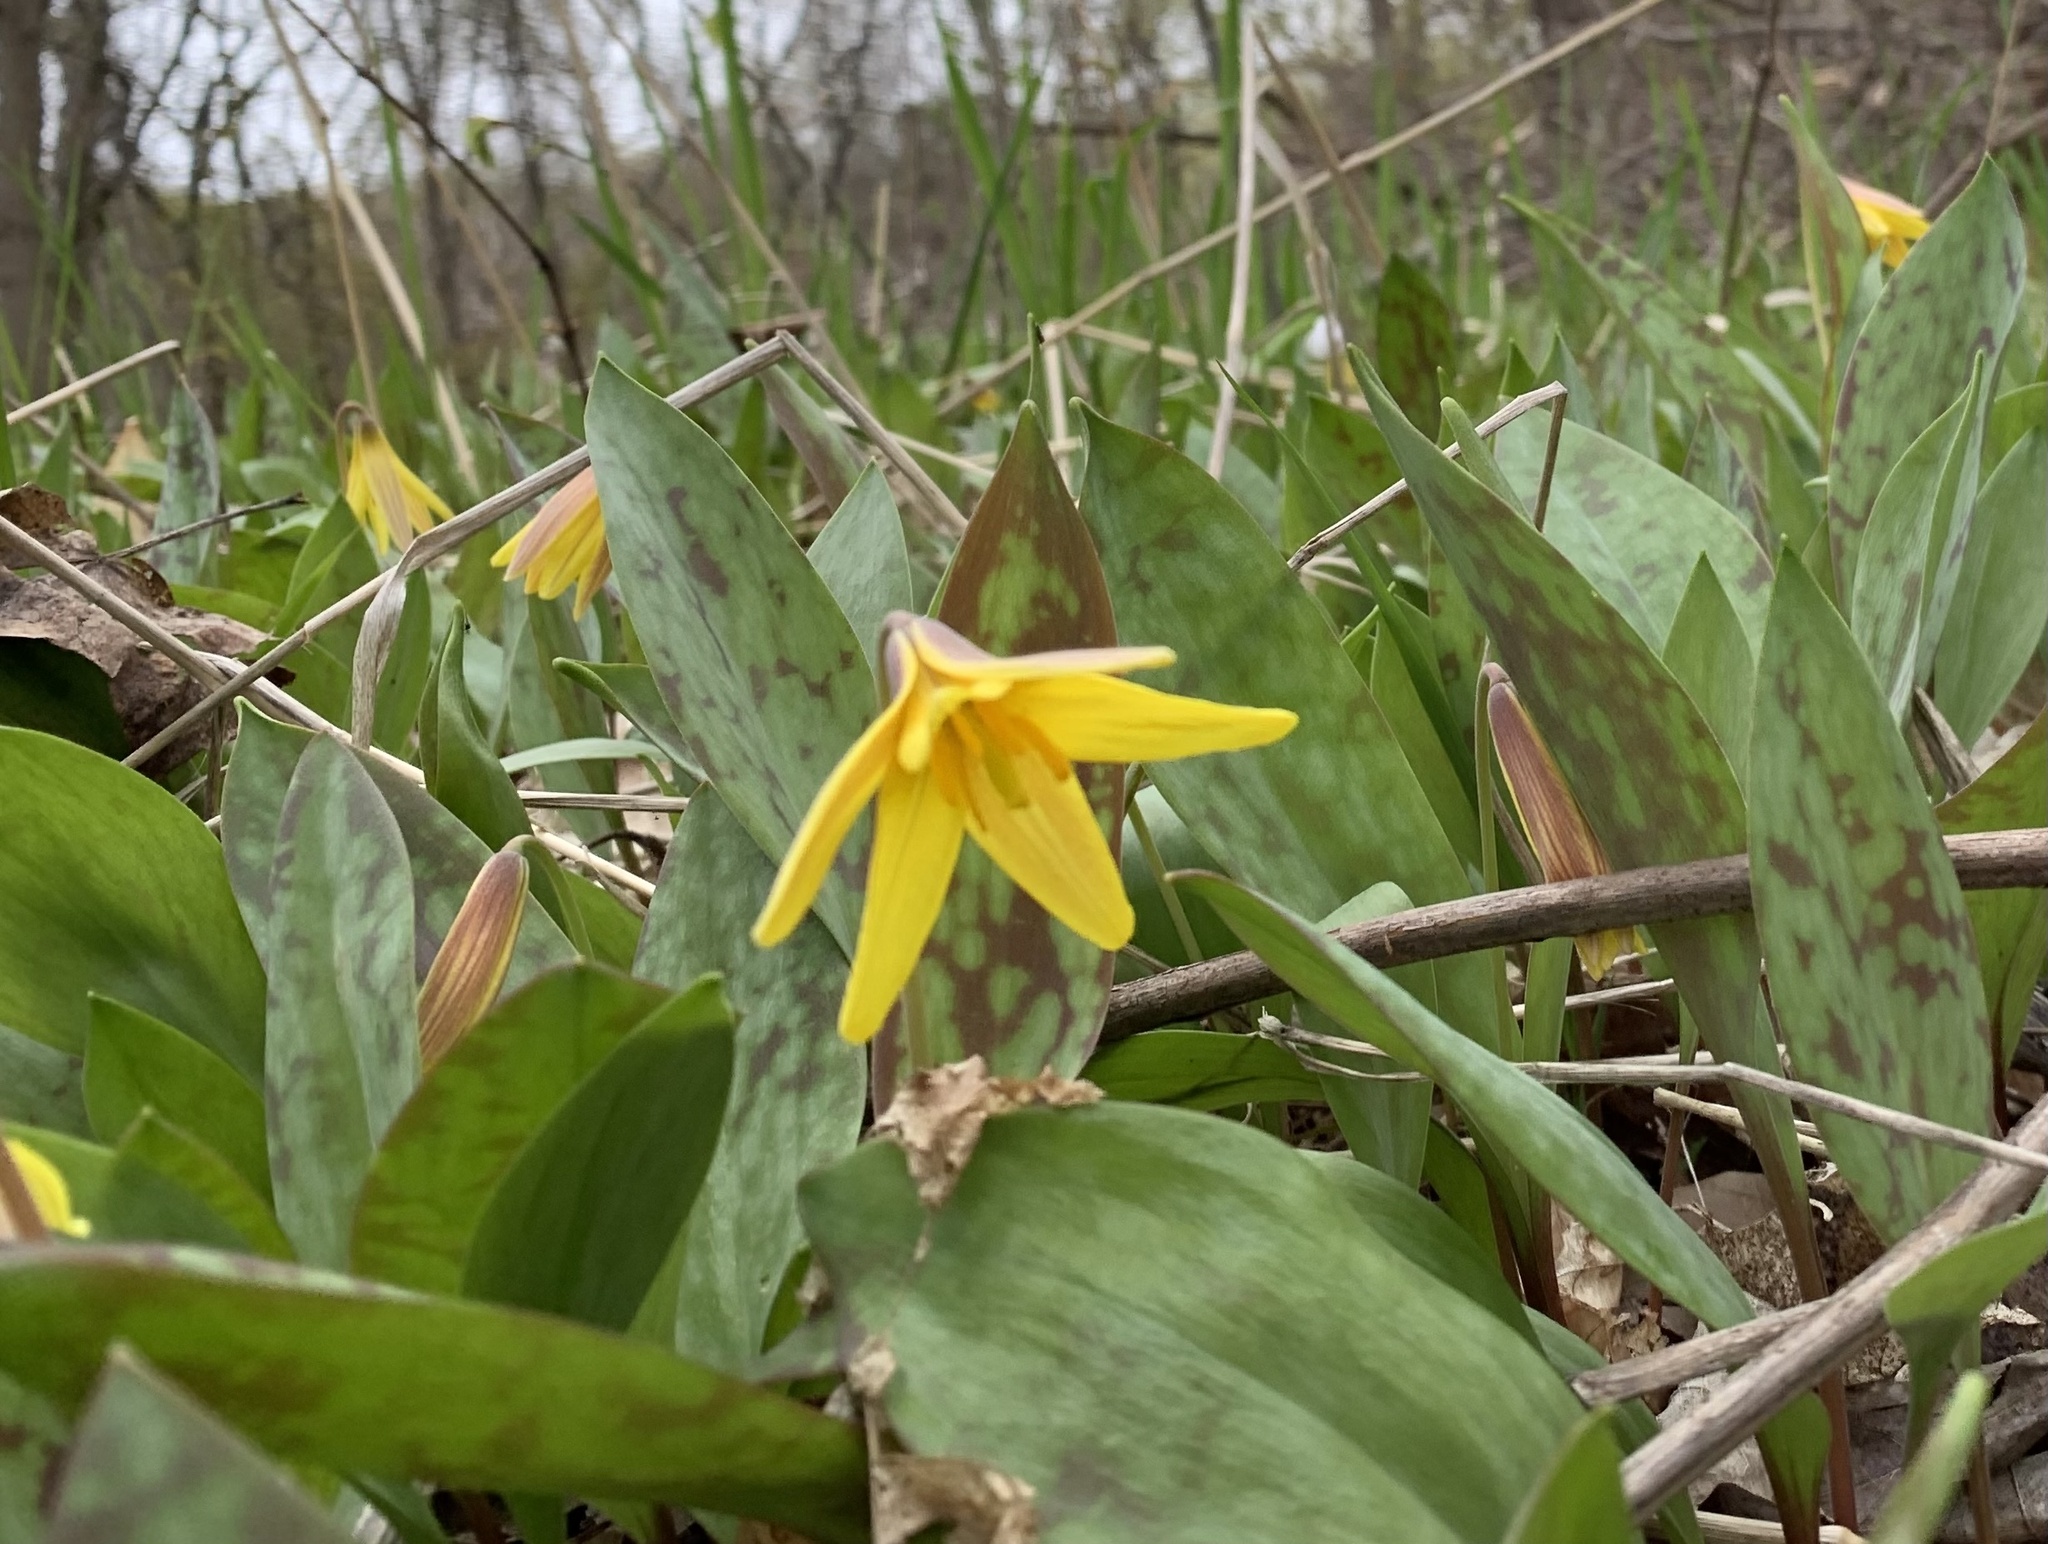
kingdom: Plantae
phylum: Tracheophyta
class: Liliopsida
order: Liliales
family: Liliaceae
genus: Erythronium
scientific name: Erythronium americanum
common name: Yellow adder's-tongue
